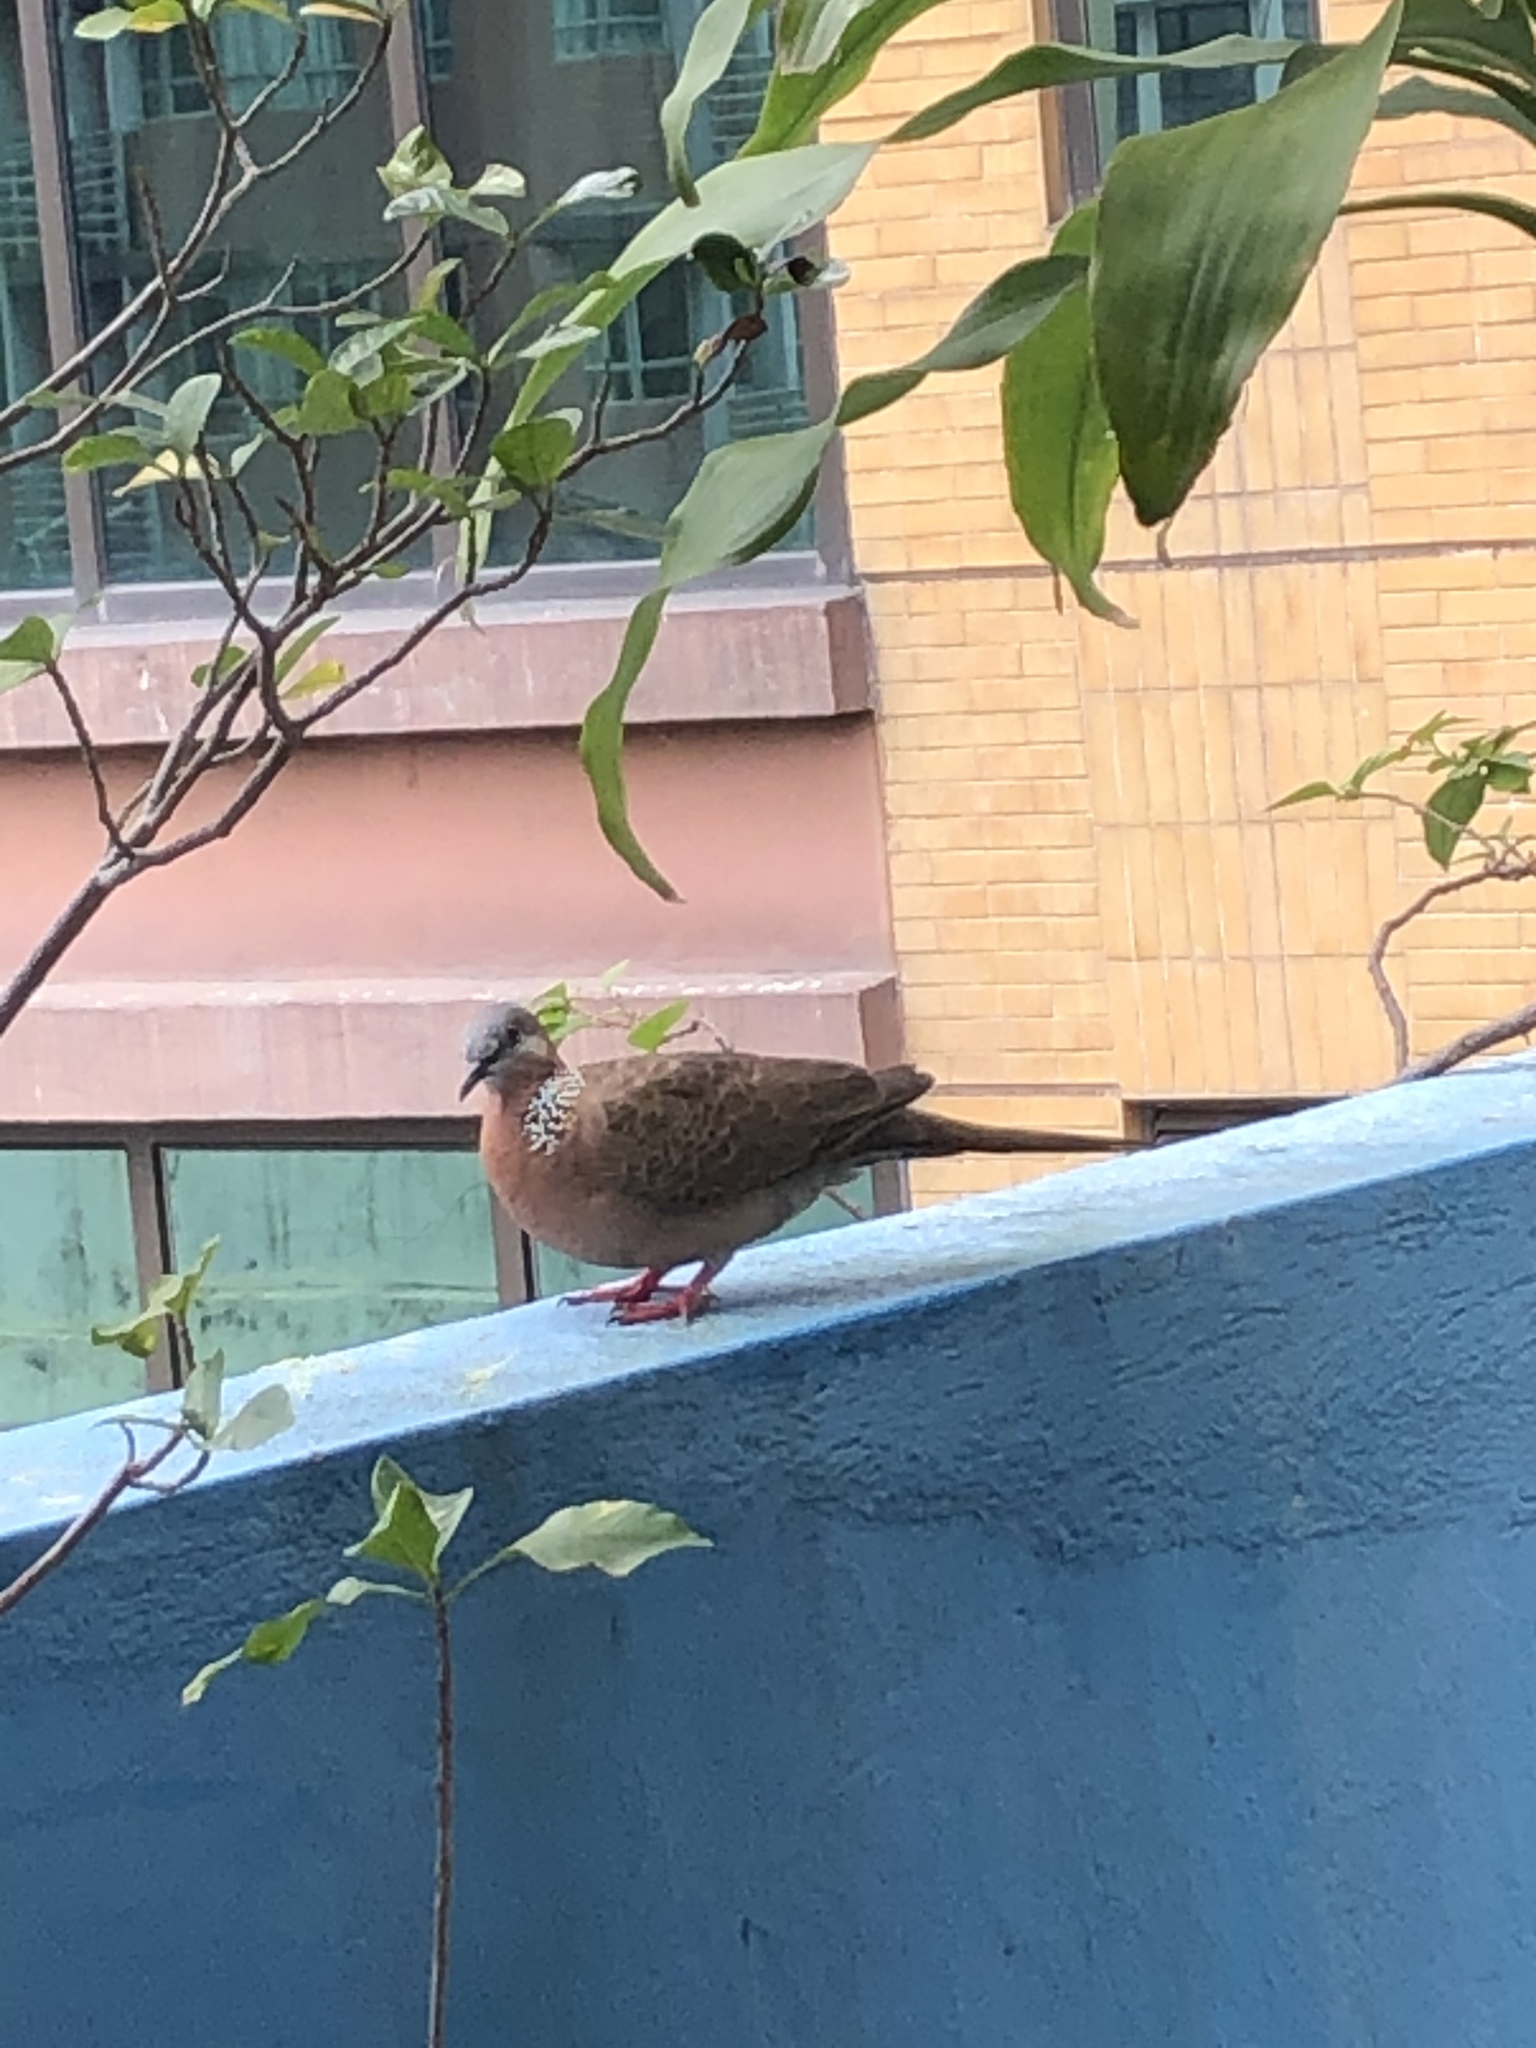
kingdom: Animalia
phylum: Chordata
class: Aves
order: Columbiformes
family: Columbidae
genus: Spilopelia
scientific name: Spilopelia chinensis
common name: Spotted dove
